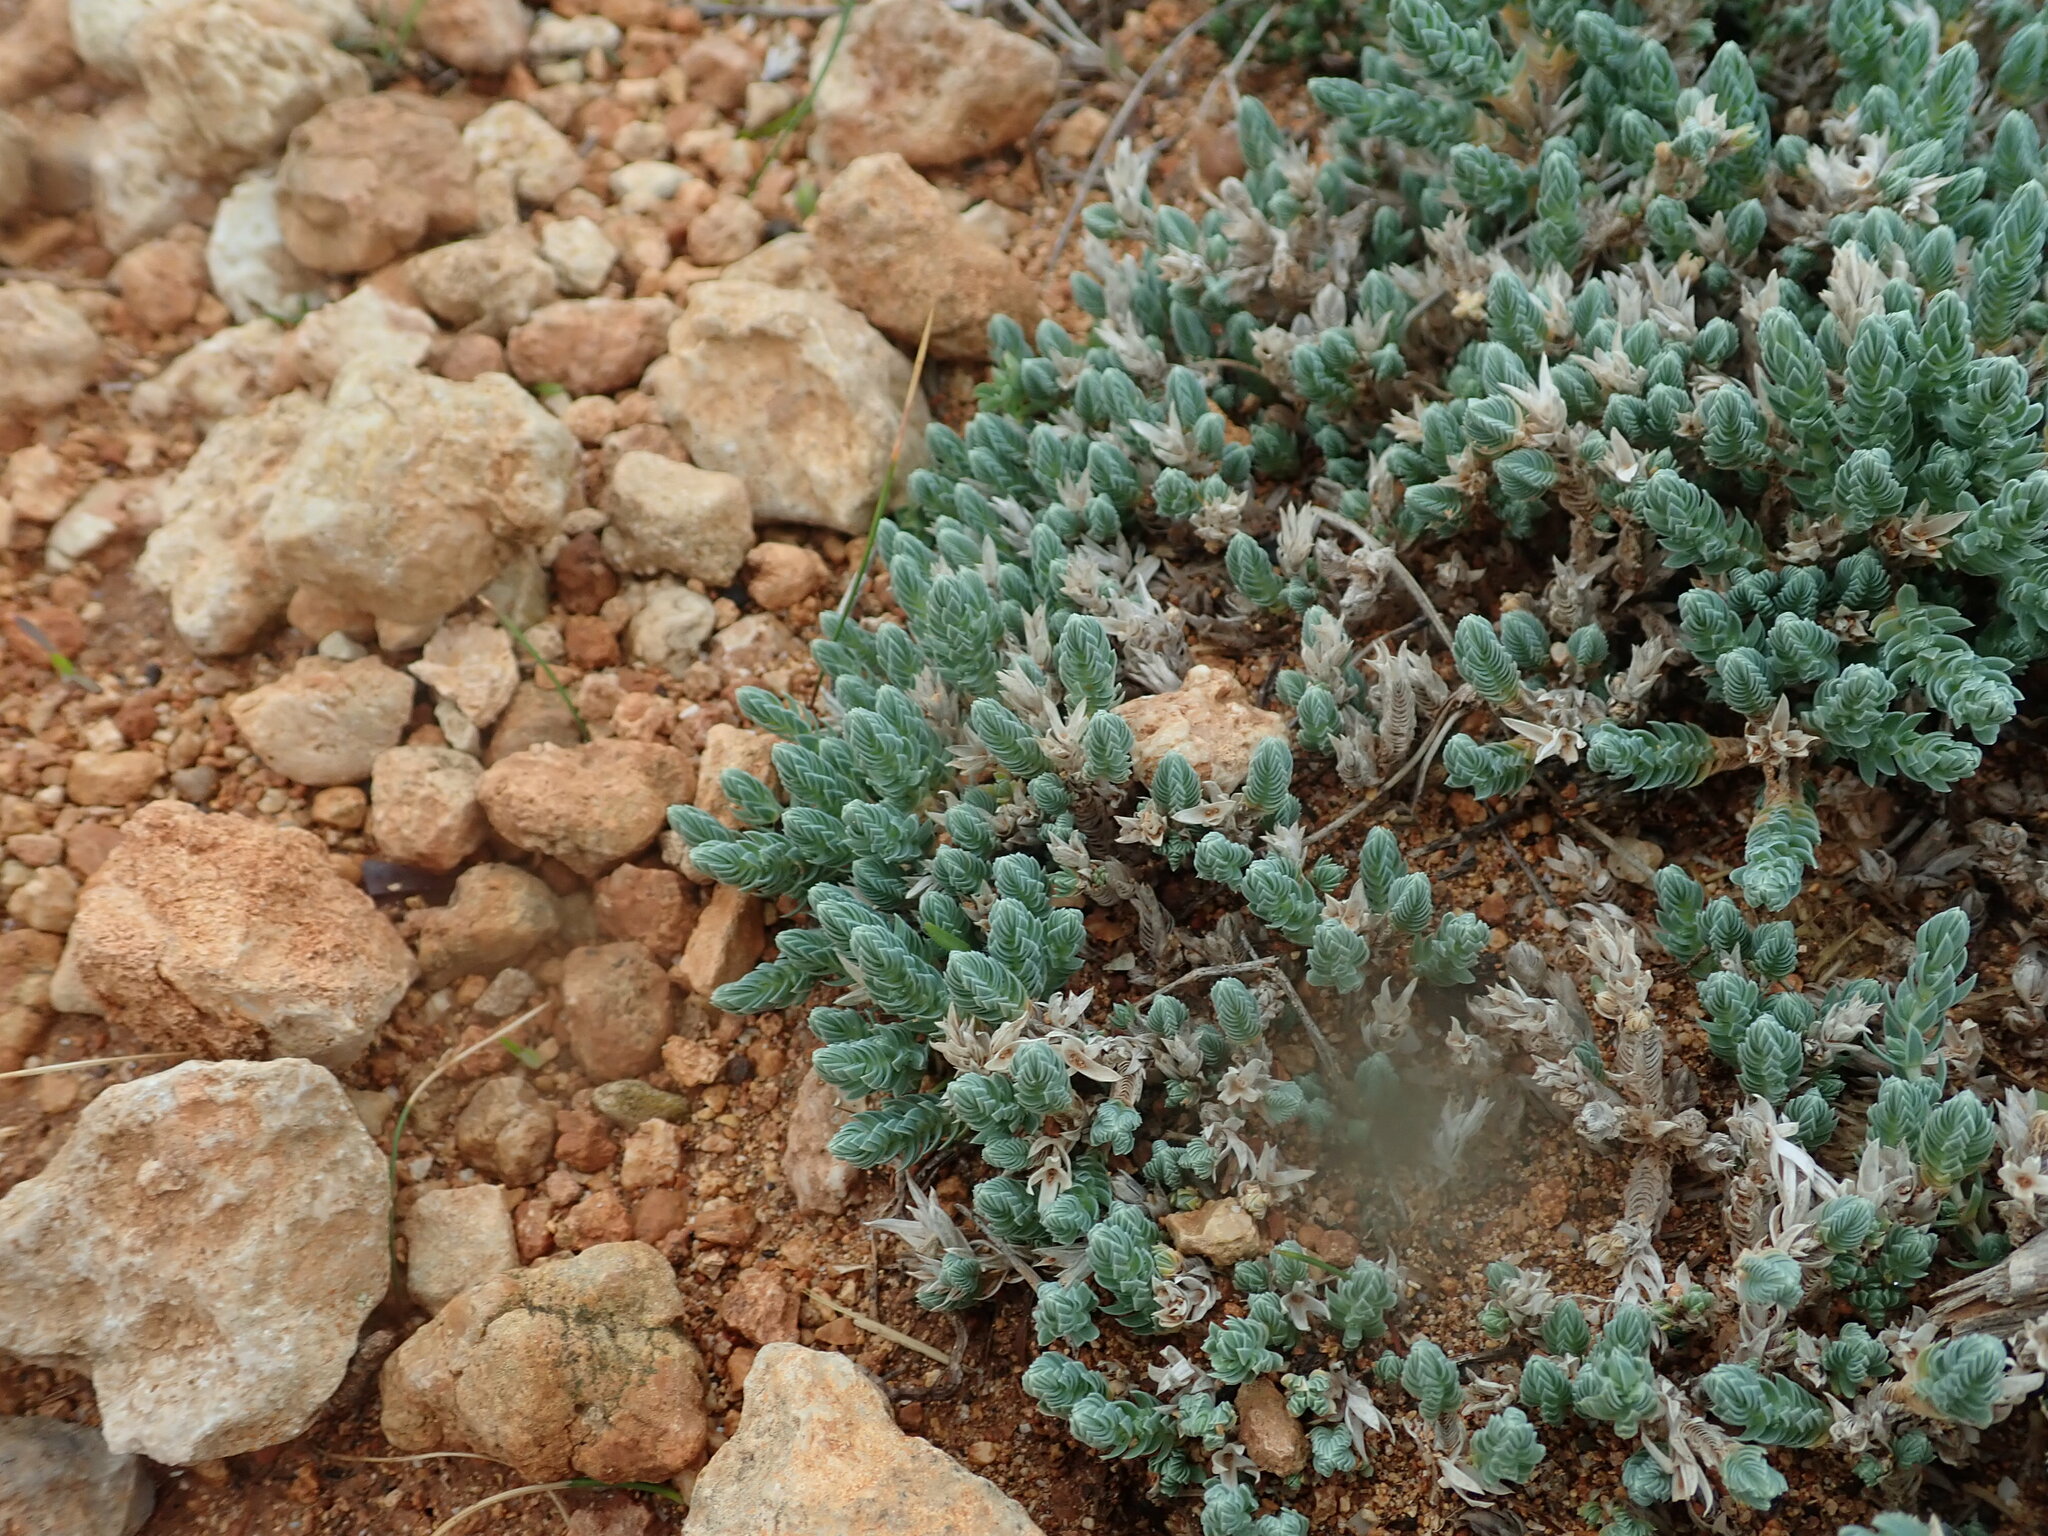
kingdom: Plantae
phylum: Tracheophyta
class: Magnoliopsida
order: Gentianales
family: Rubiaceae
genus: Crucianella
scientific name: Crucianella maritima
